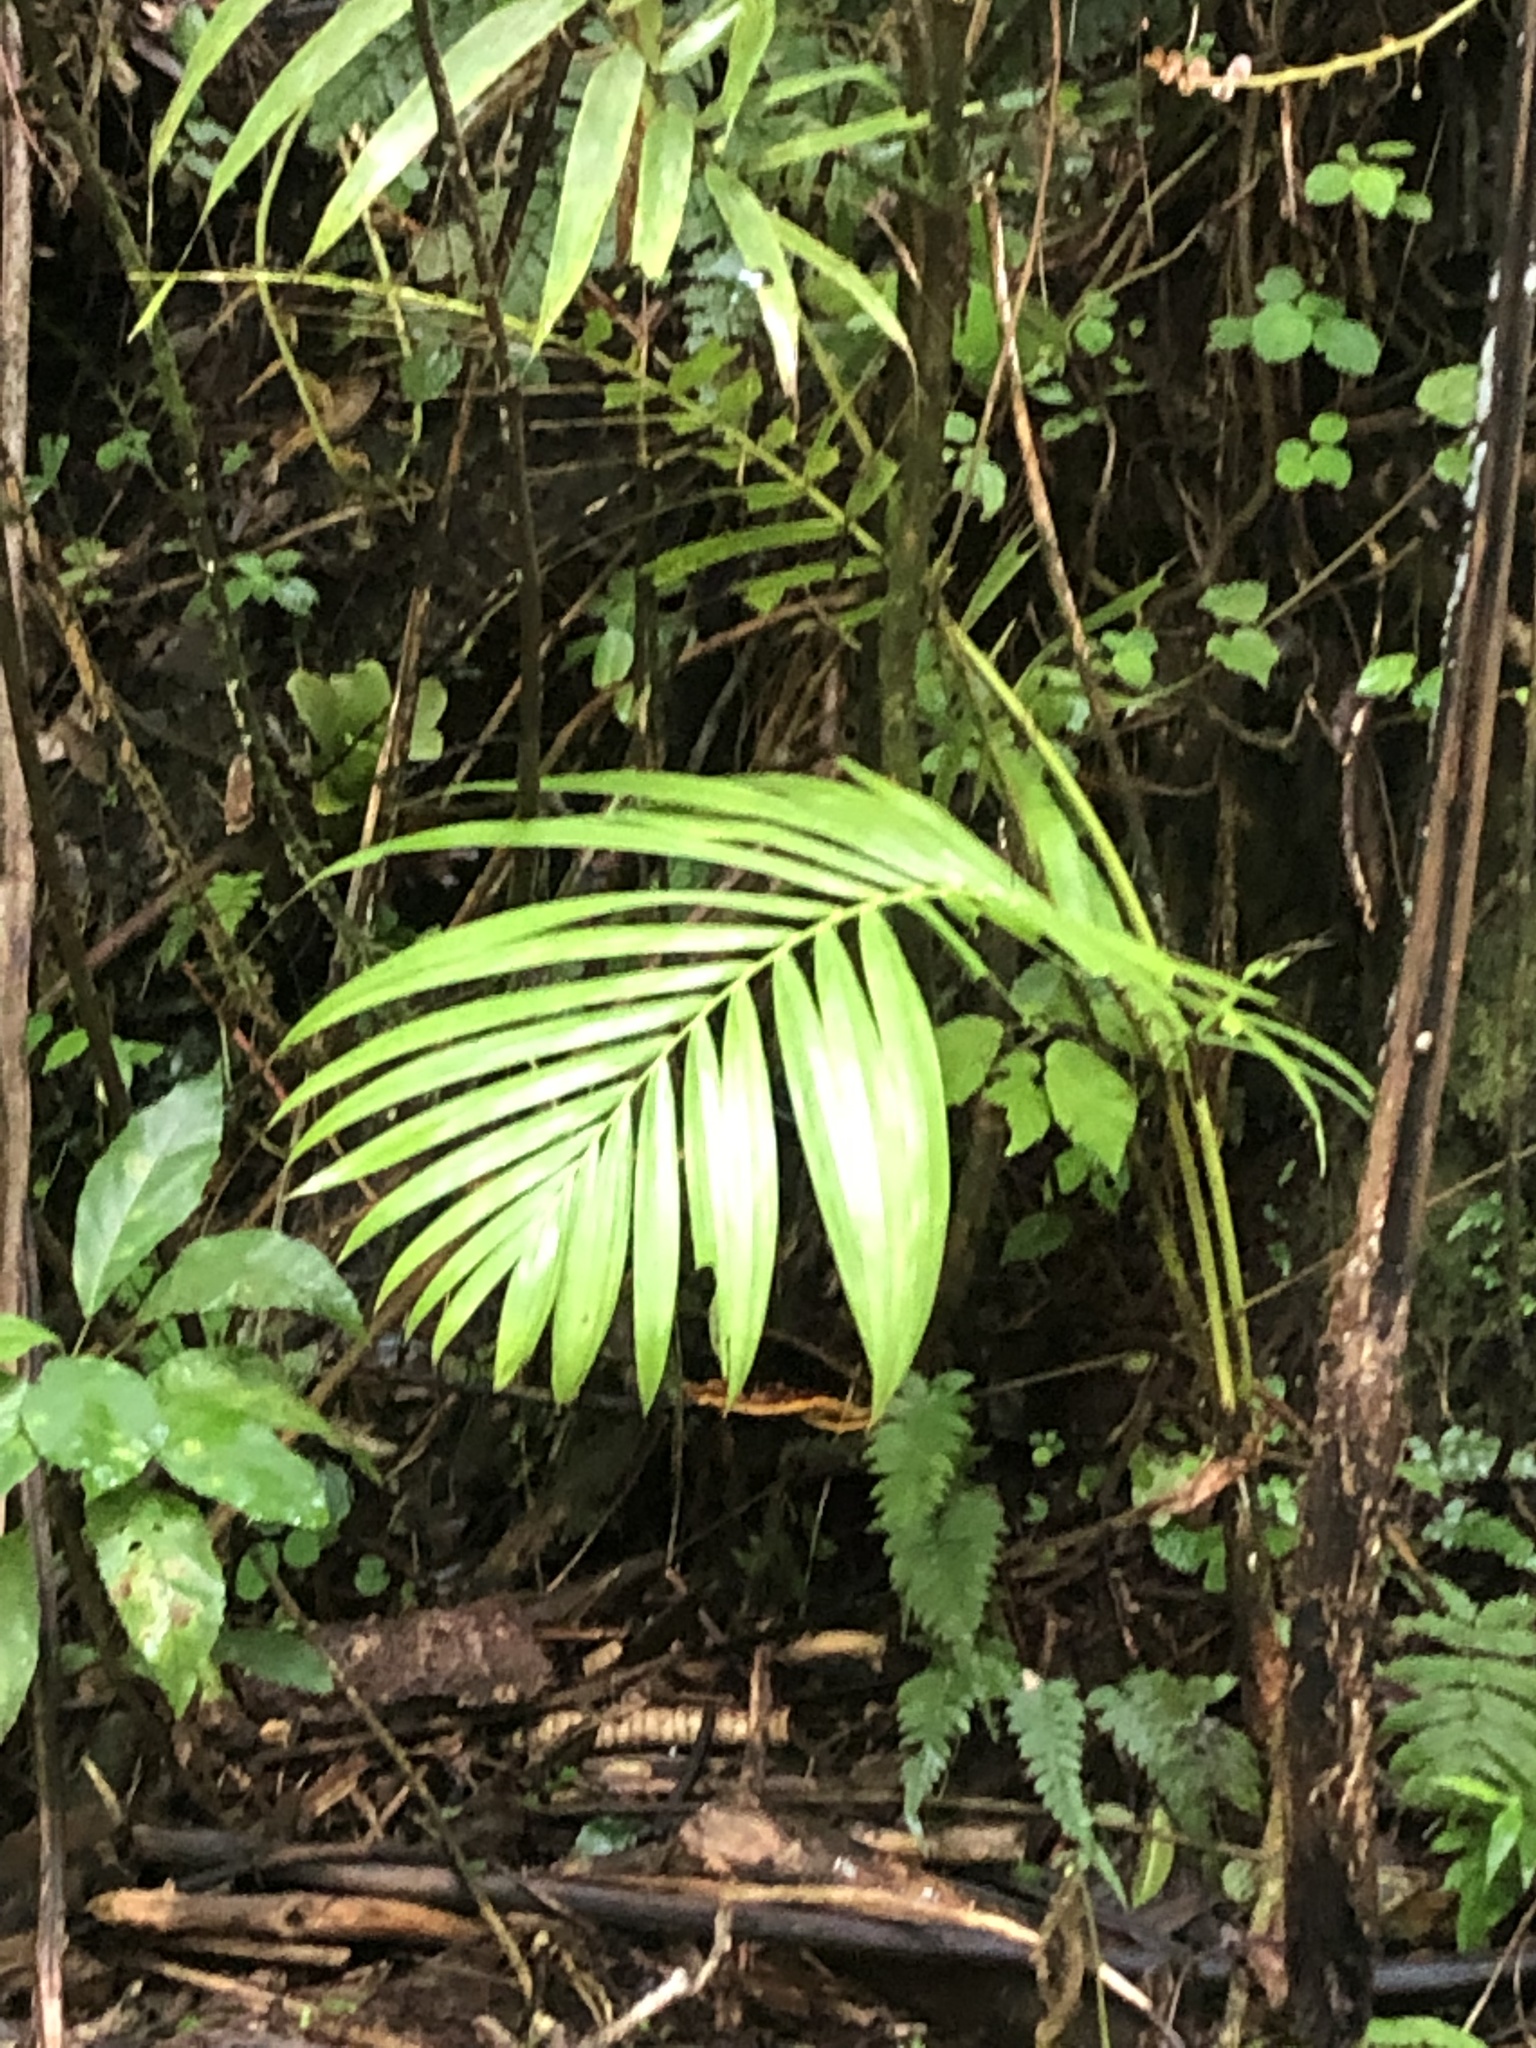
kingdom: Plantae
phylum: Tracheophyta
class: Liliopsida
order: Arecales
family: Arecaceae
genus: Prestoea
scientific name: Prestoea acuminata
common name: Sierran palm
